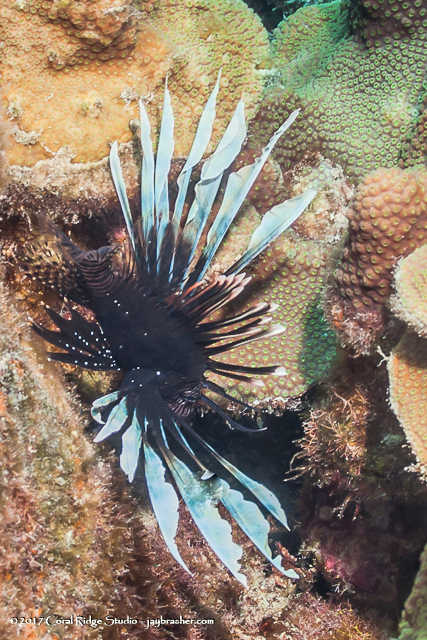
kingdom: Animalia
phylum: Chordata
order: Scorpaeniformes
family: Scorpaenidae
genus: Pterois
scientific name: Pterois volitans
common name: Lionfish
